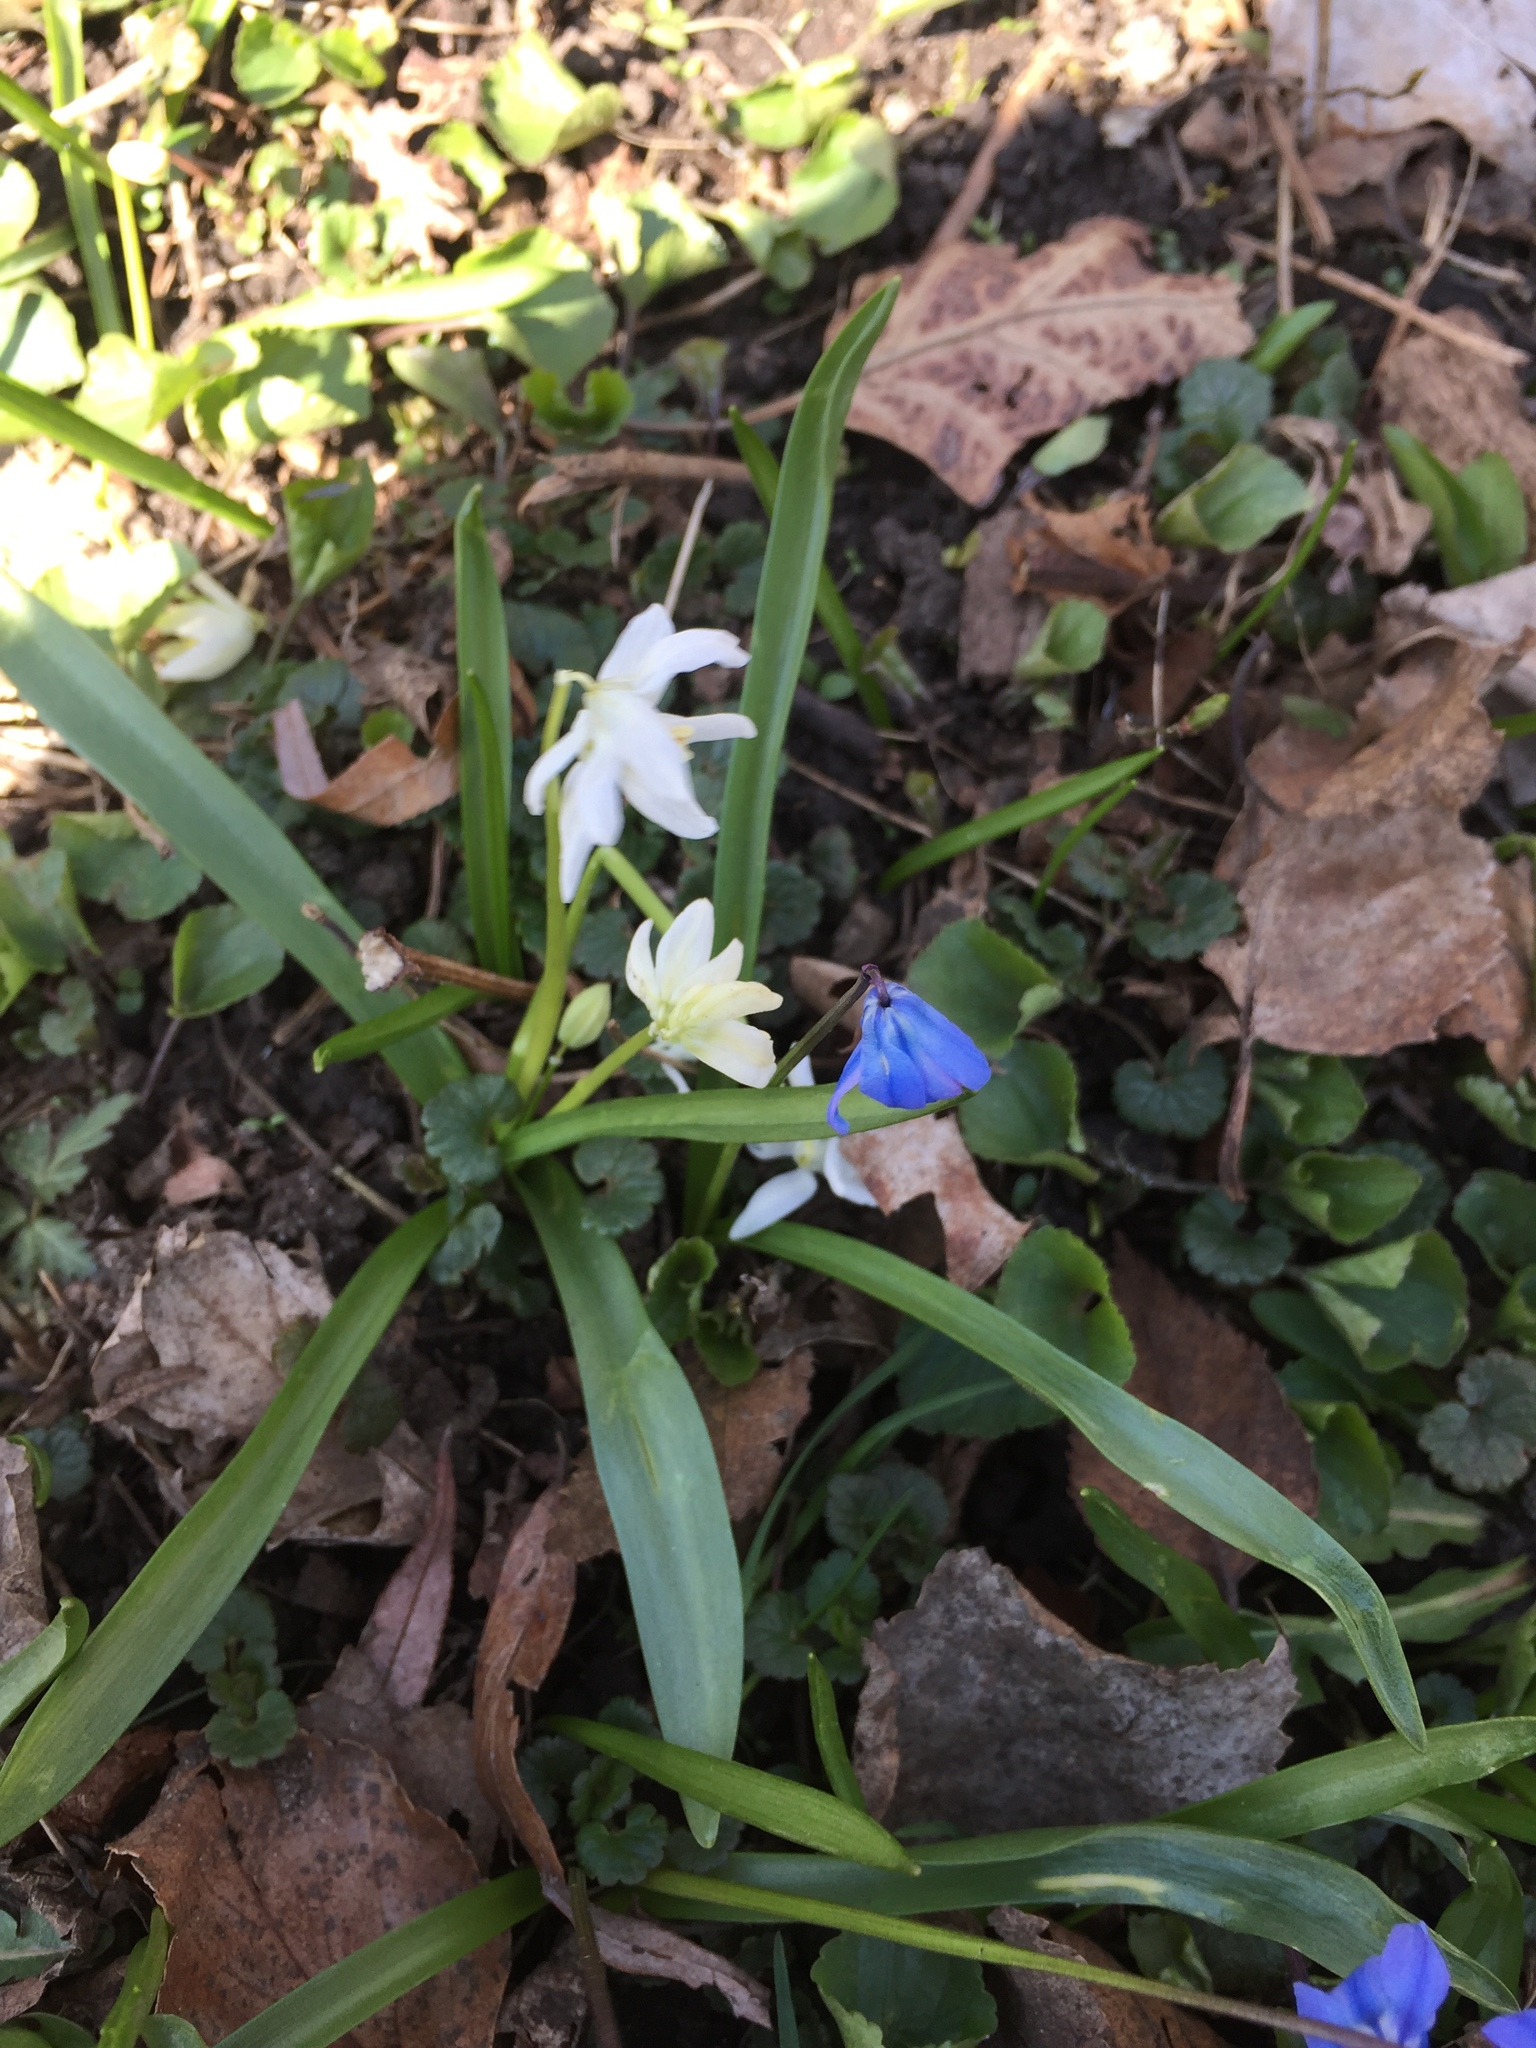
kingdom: Plantae
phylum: Tracheophyta
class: Liliopsida
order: Asparagales
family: Asparagaceae
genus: Scilla
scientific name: Scilla siberica
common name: Siberian squill
